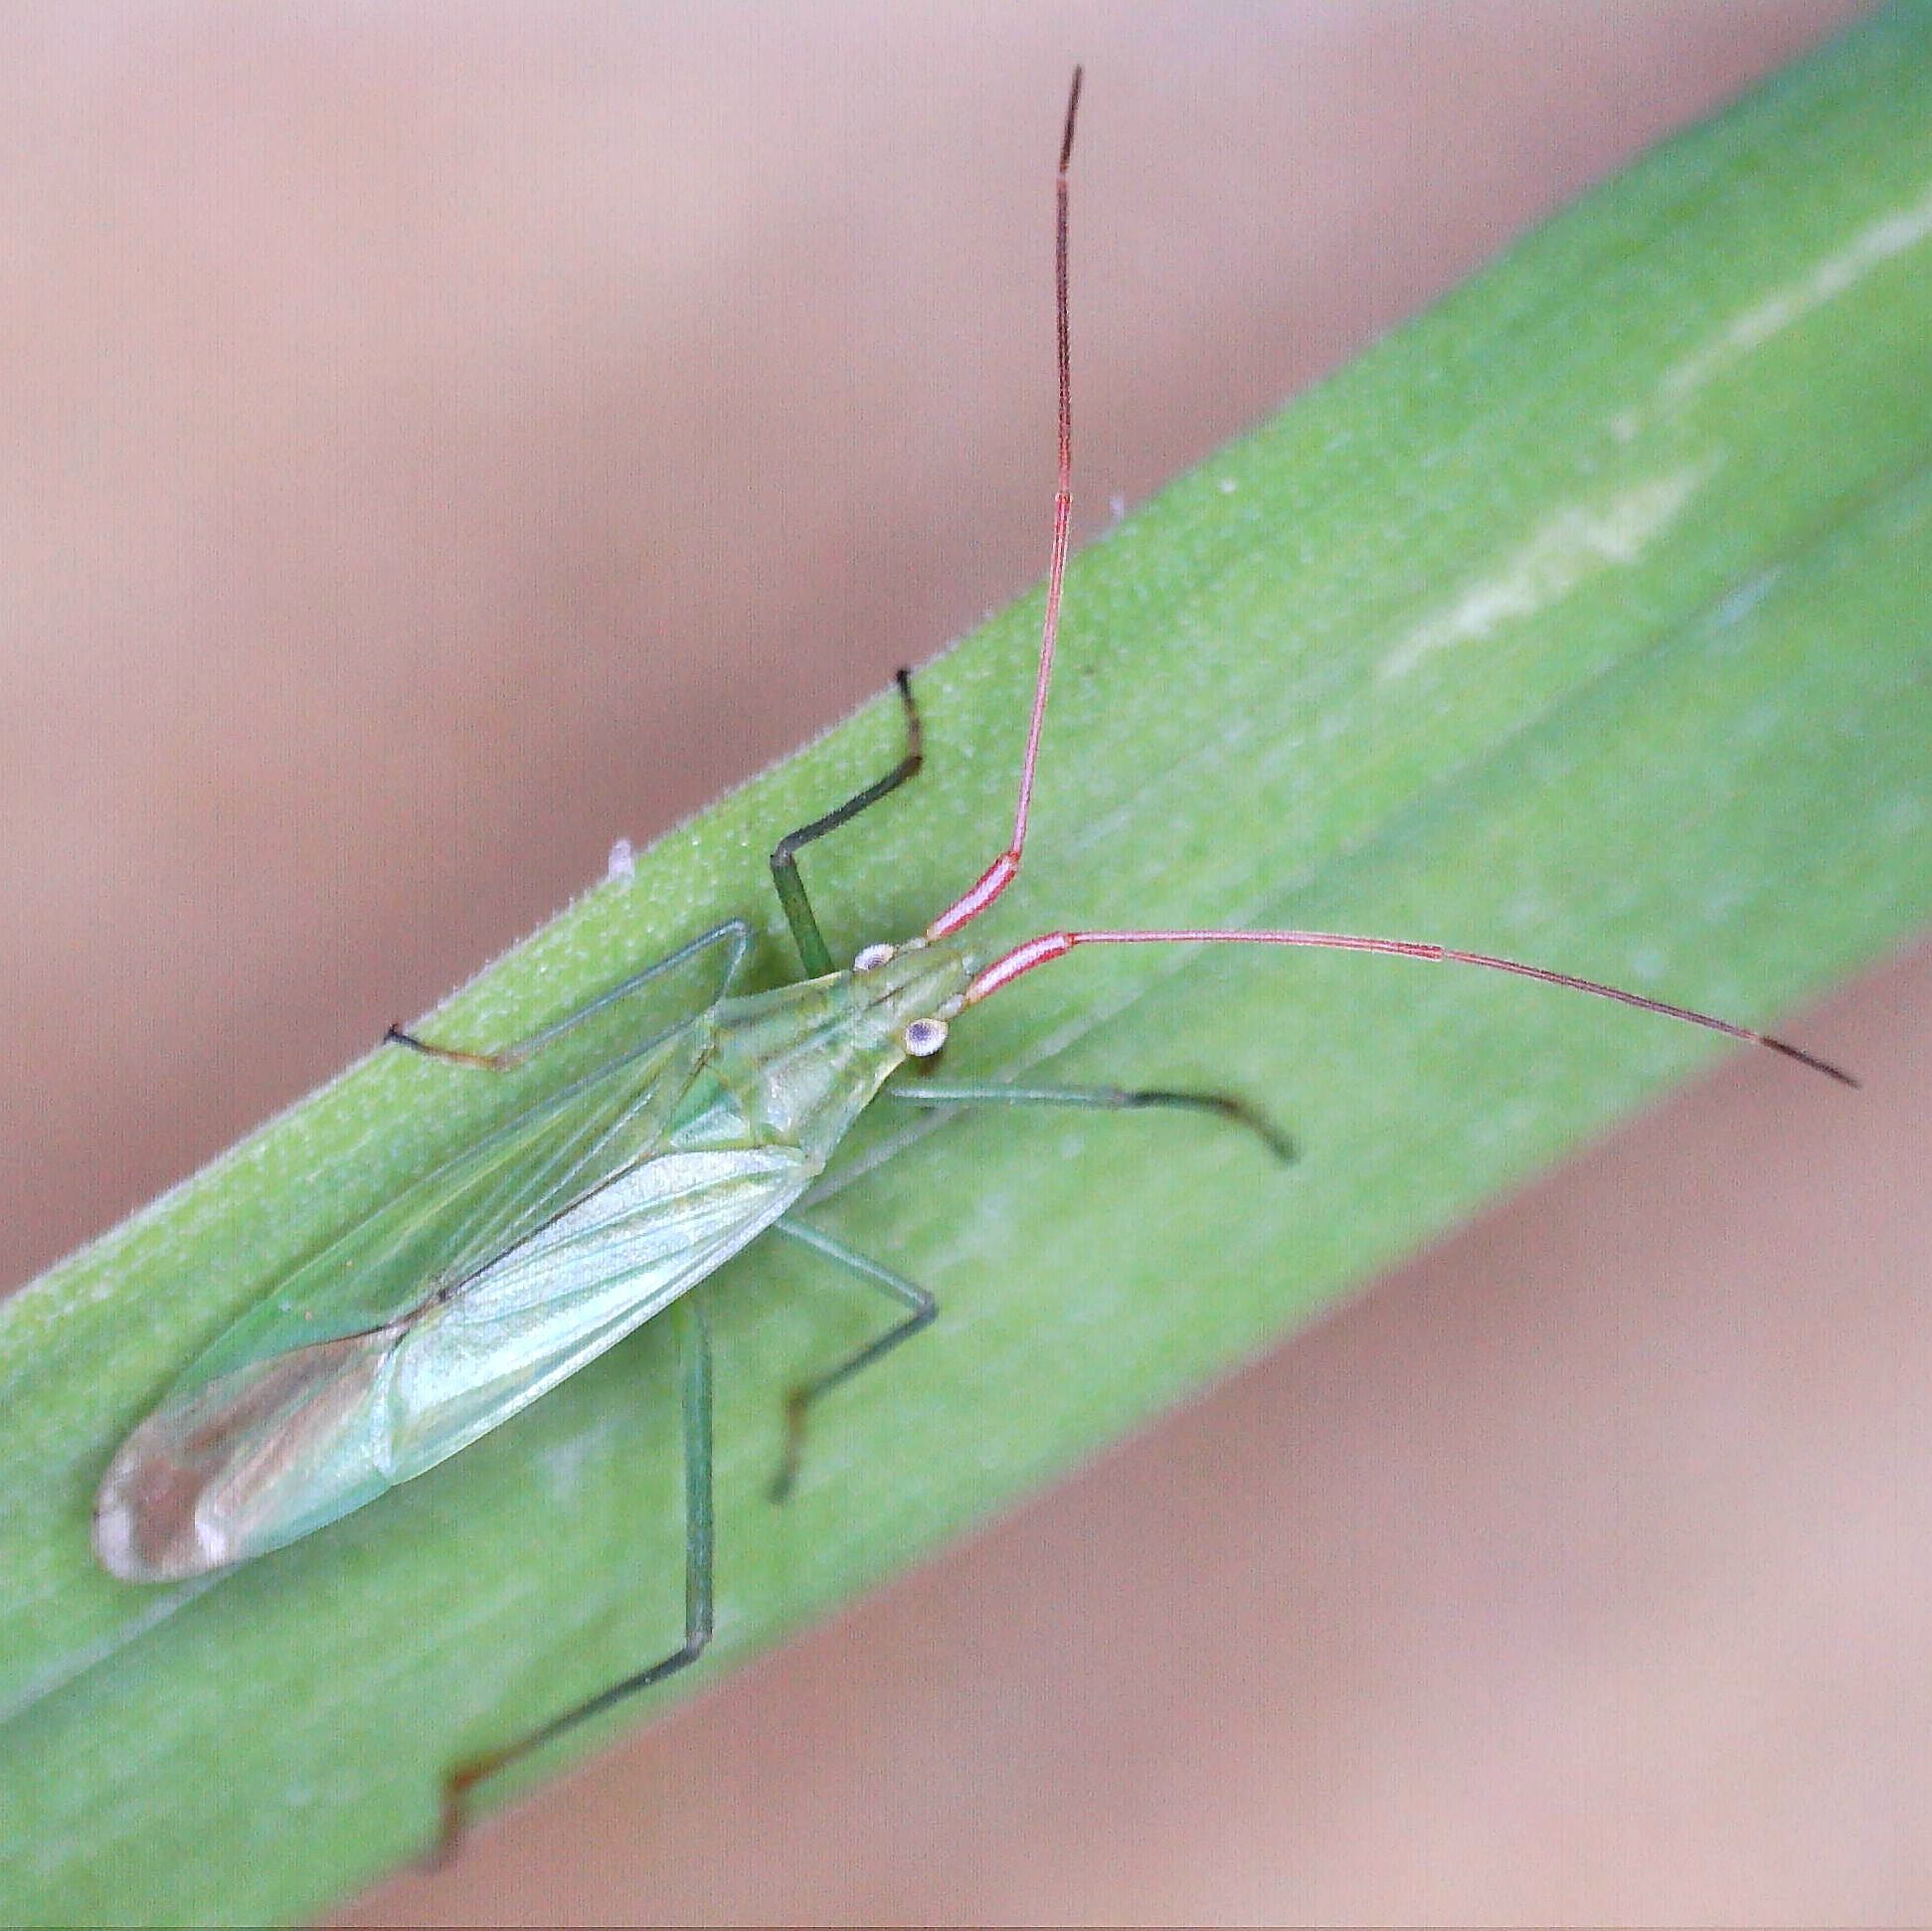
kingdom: Animalia
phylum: Arthropoda
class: Insecta
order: Hemiptera
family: Miridae
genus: Trigonotylus
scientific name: Trigonotylus caelestialium
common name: Rice leaf bug
